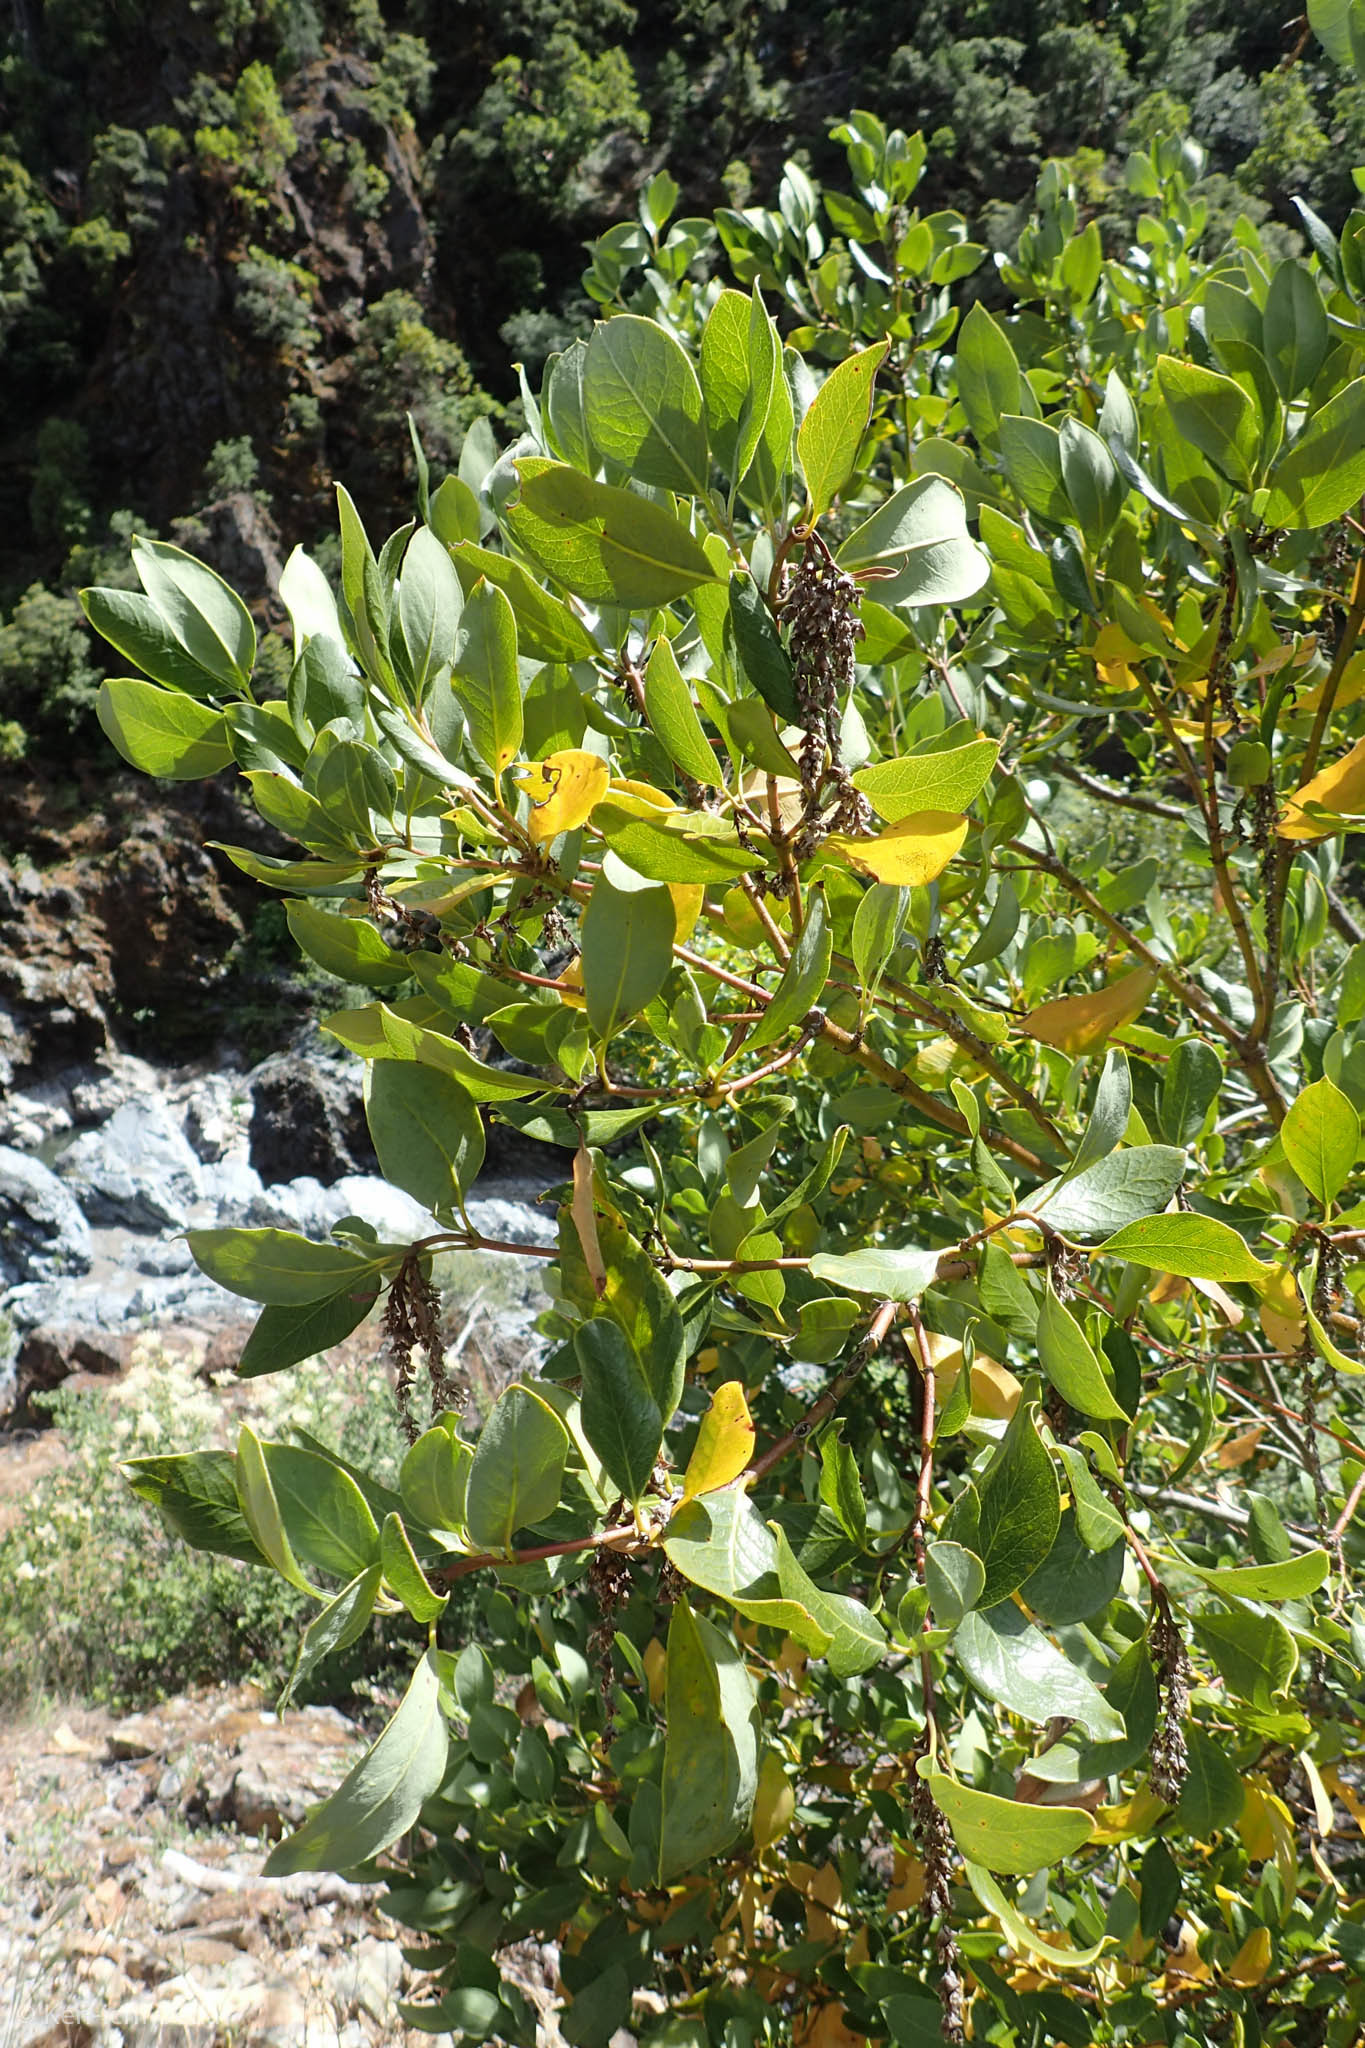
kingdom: Plantae
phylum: Tracheophyta
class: Magnoliopsida
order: Garryales
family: Garryaceae
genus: Garrya
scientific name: Garrya fremontii
